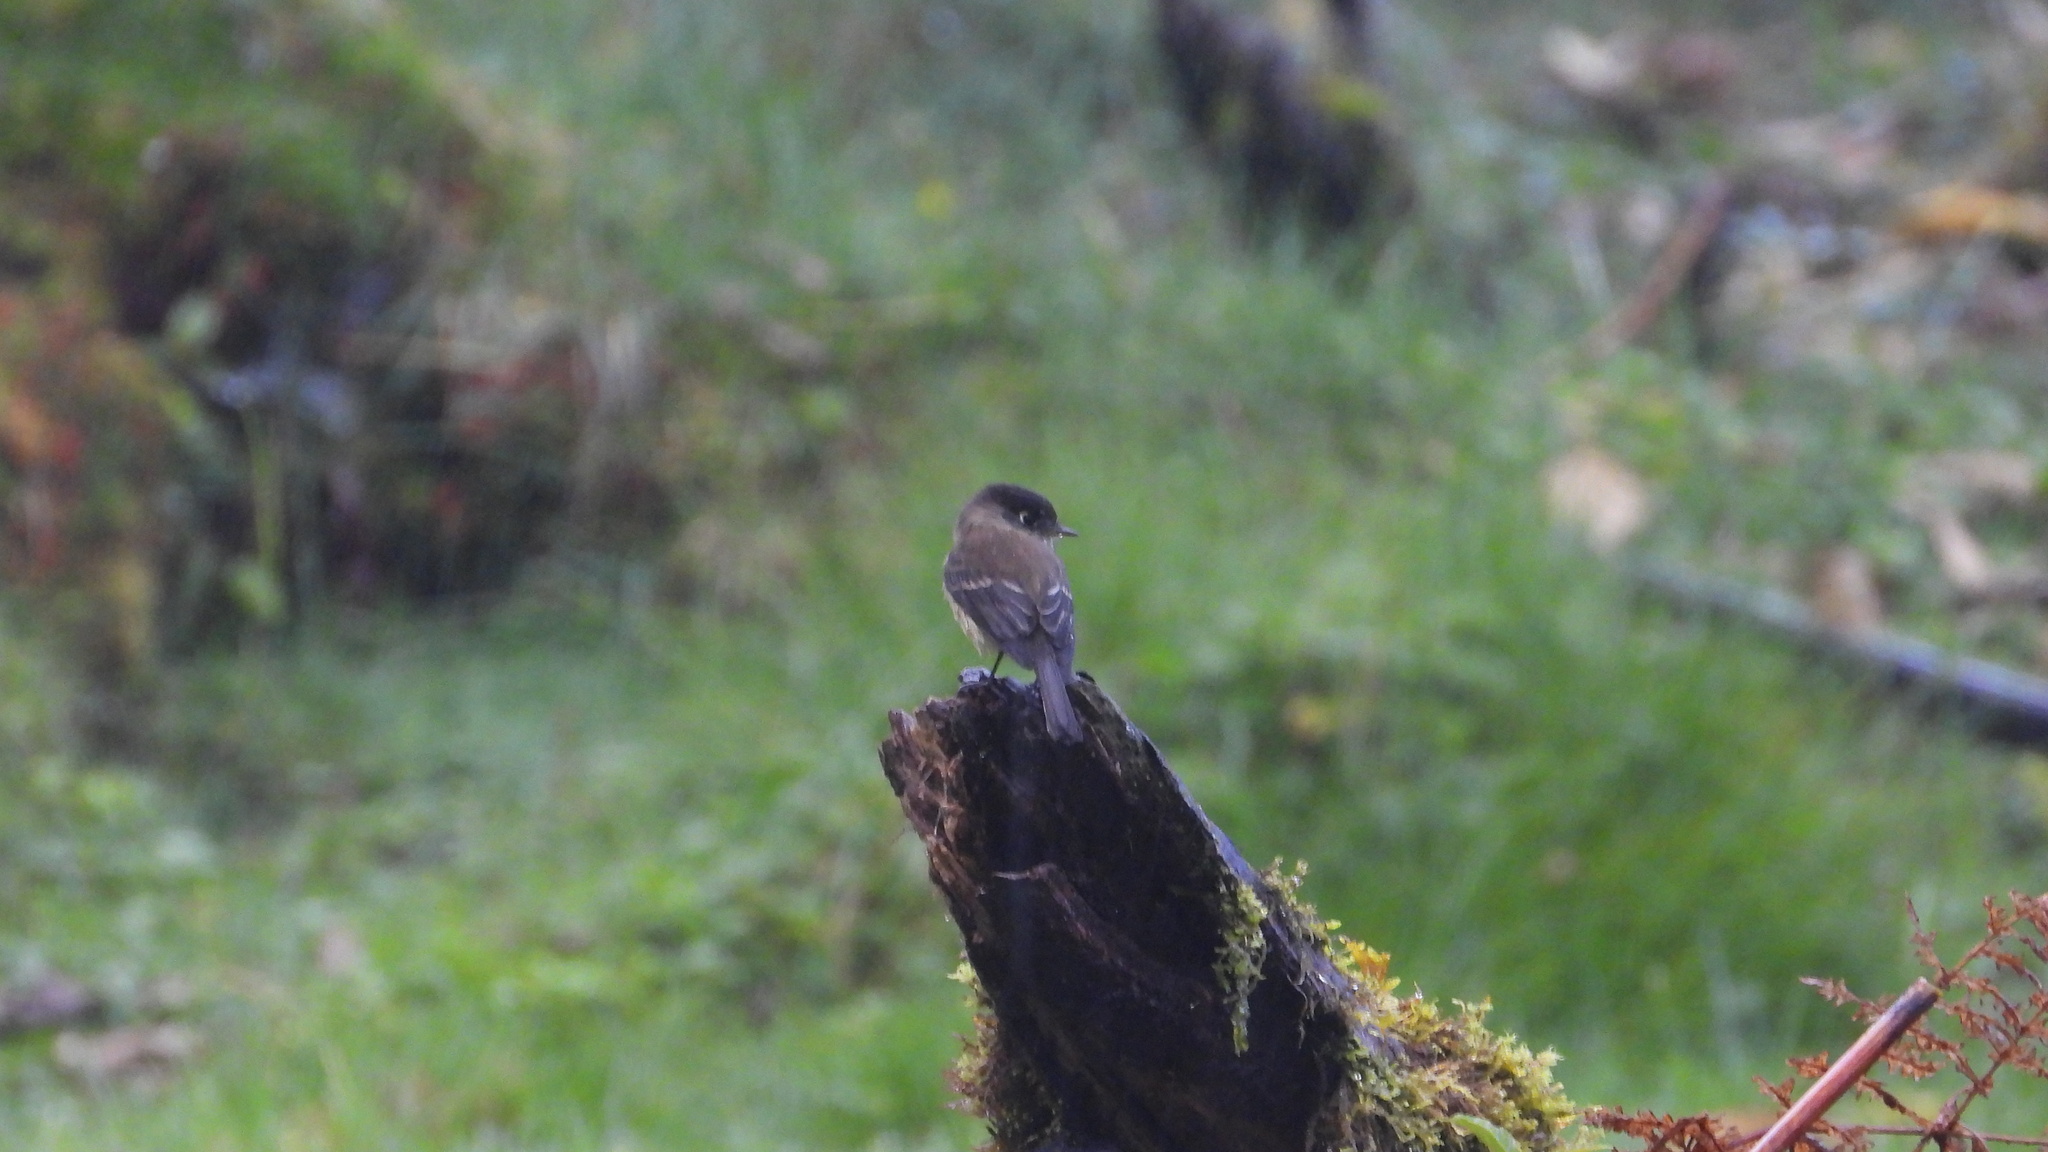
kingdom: Animalia
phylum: Chordata
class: Aves
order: Passeriformes
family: Tyrannidae
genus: Empidonax
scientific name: Empidonax atriceps
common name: Black-capped flycatcher
